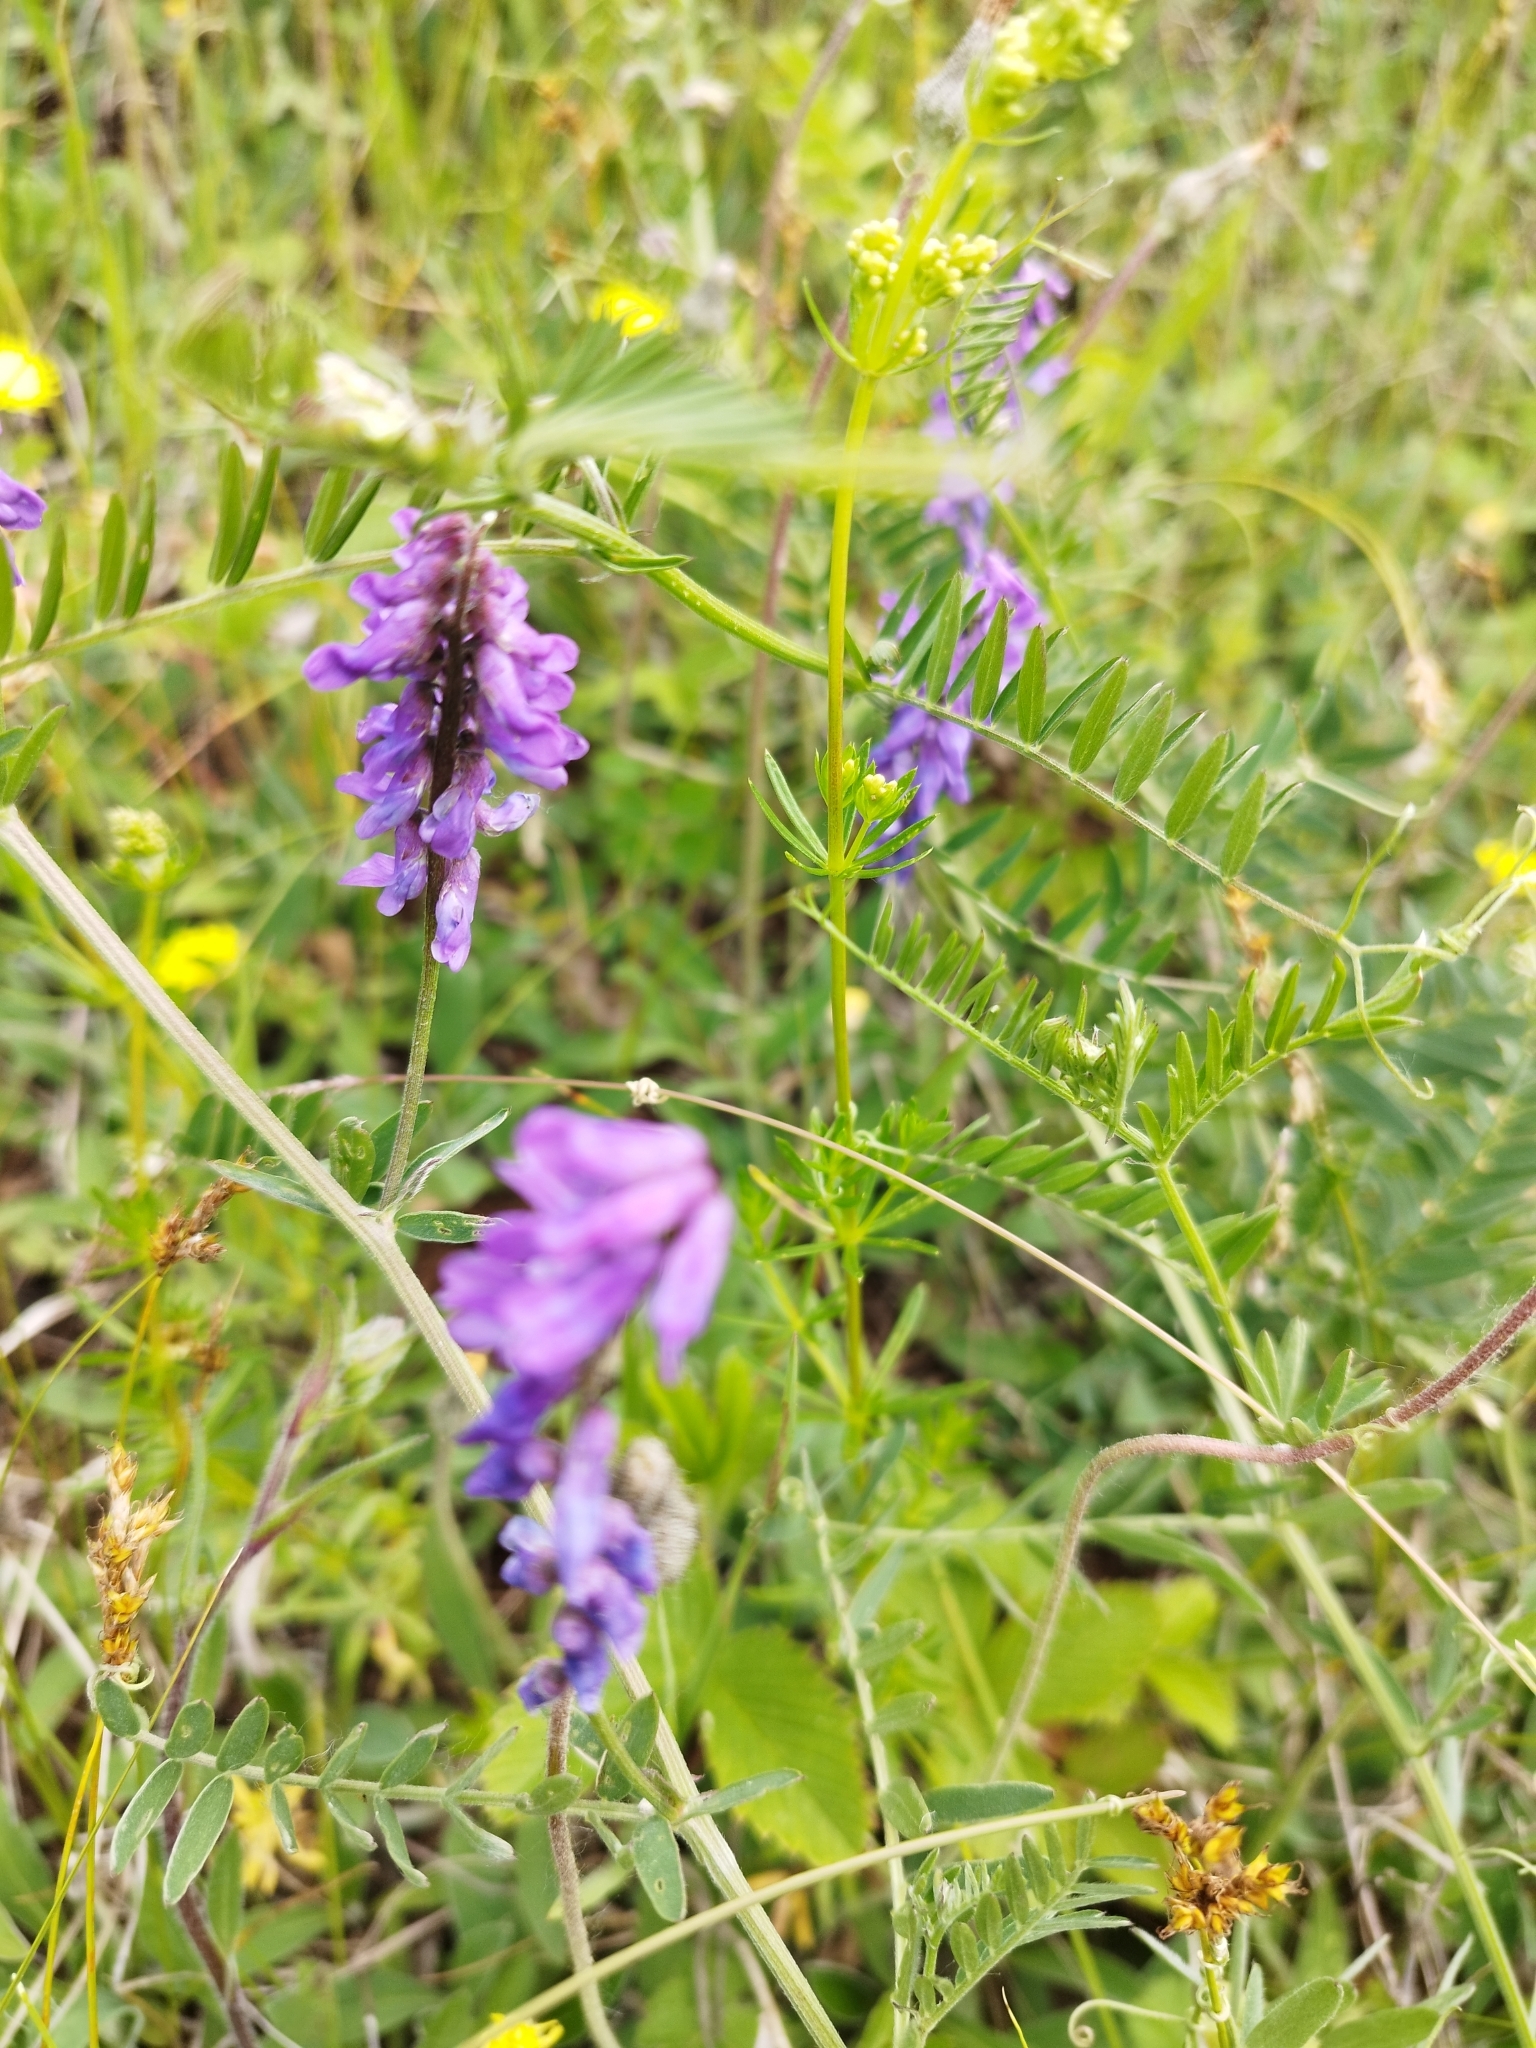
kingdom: Plantae
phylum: Tracheophyta
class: Magnoliopsida
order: Fabales
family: Fabaceae
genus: Vicia
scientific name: Vicia cracca
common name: Bird vetch
